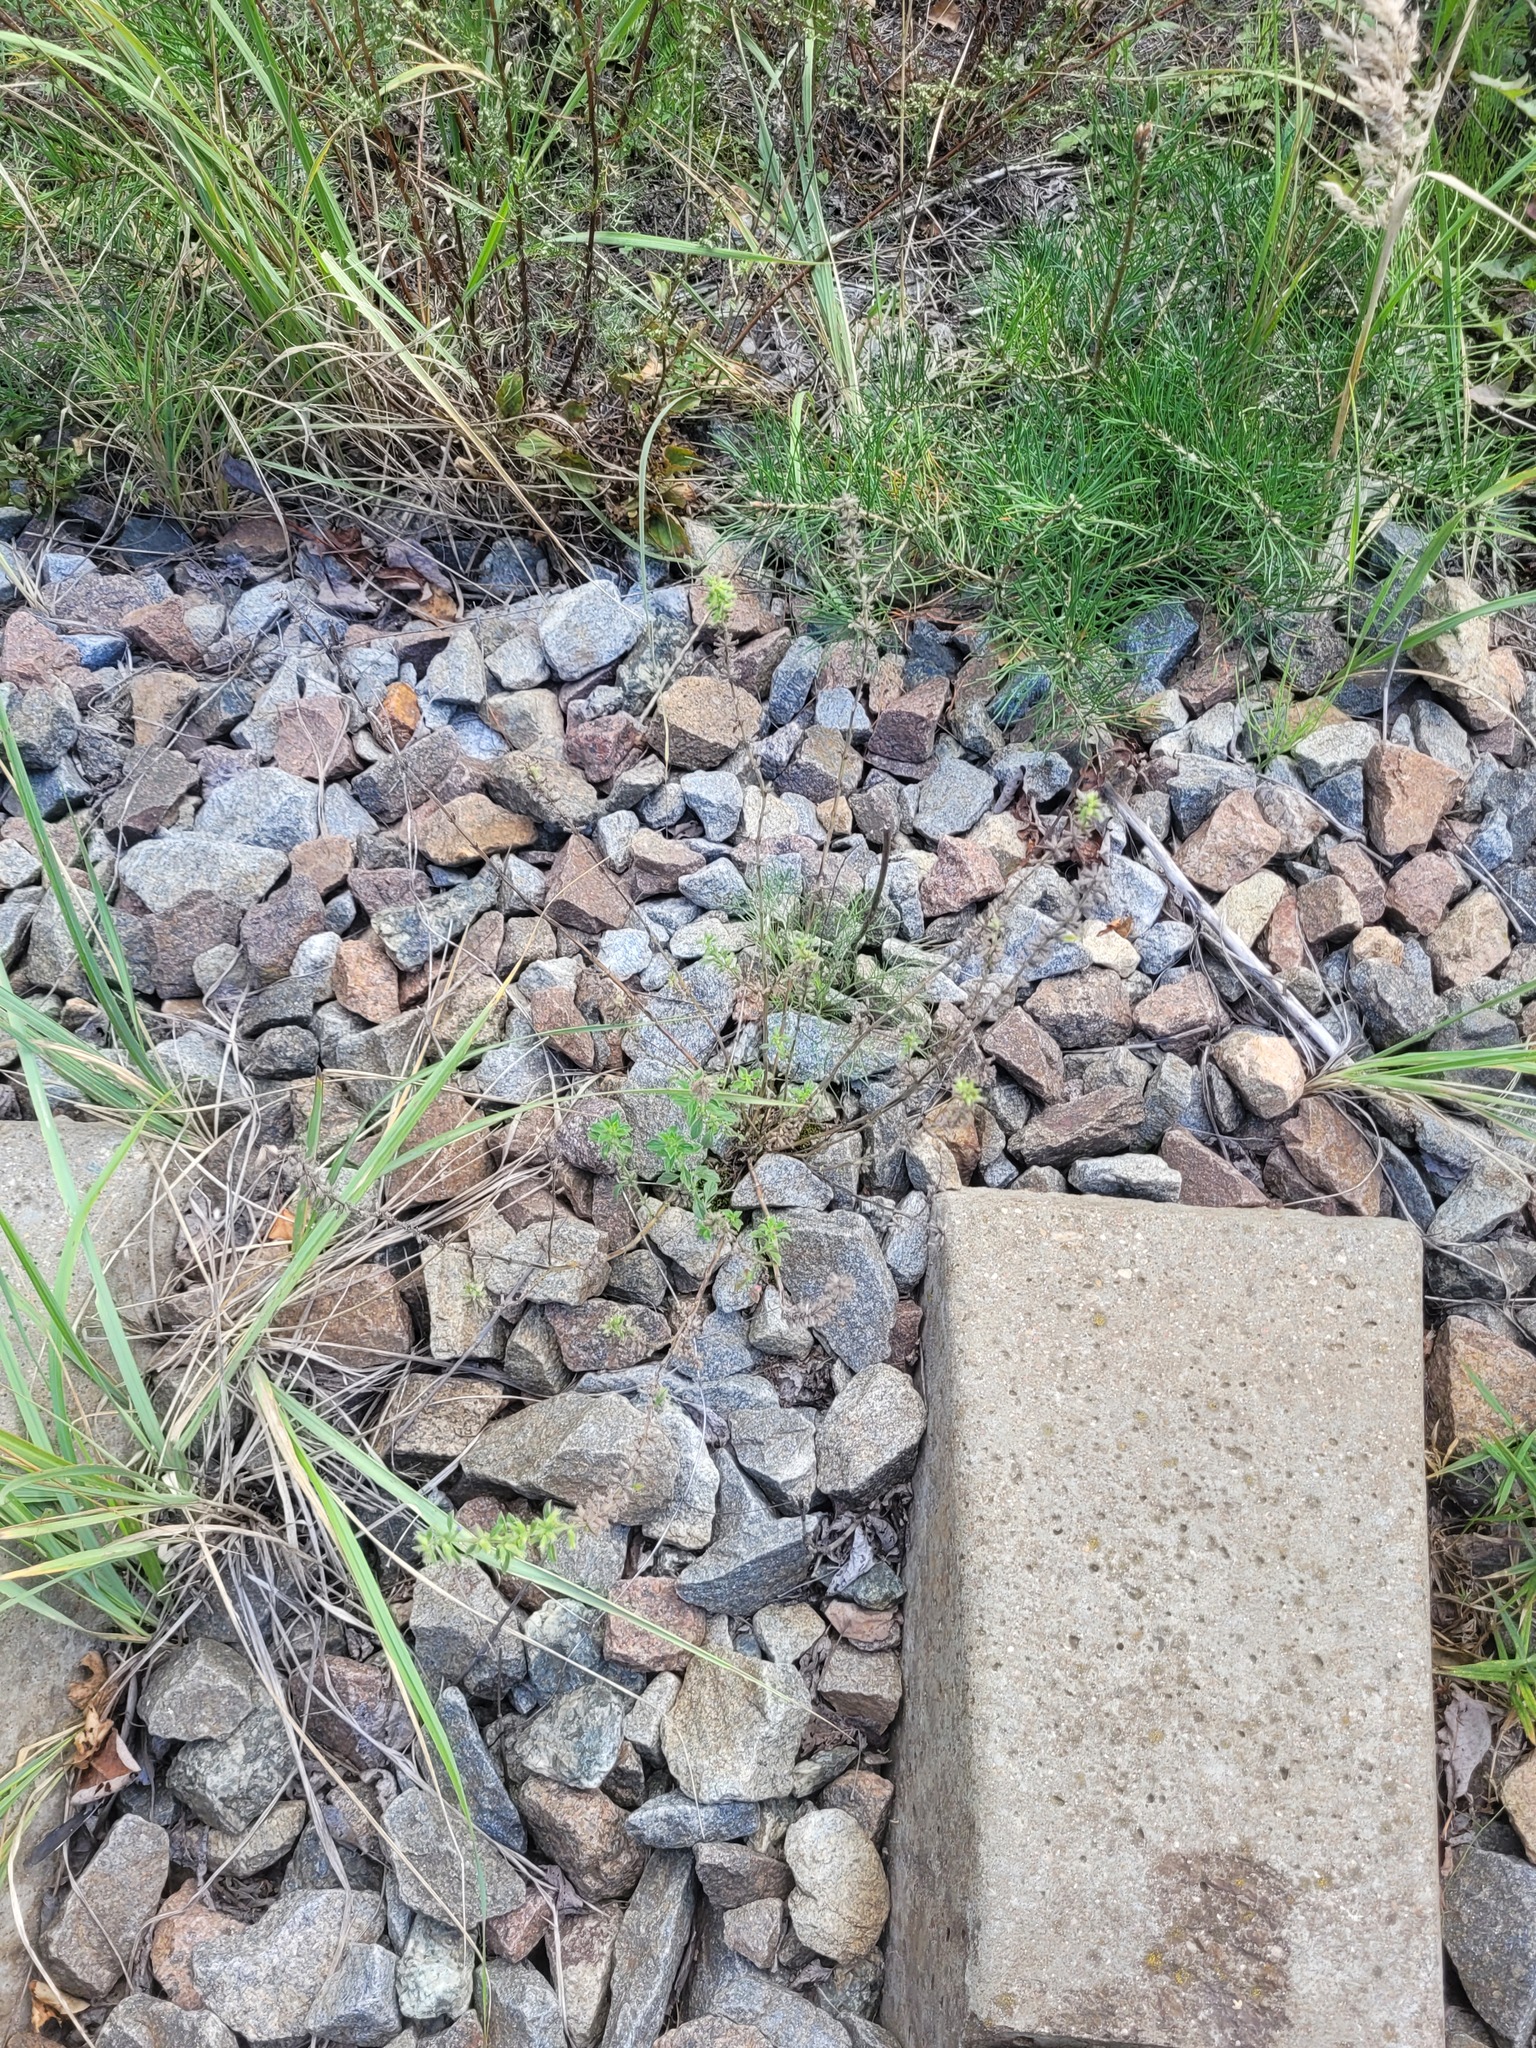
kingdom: Plantae
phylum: Tracheophyta
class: Magnoliopsida
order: Lamiales
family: Lamiaceae
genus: Clinopodium
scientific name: Clinopodium acinos
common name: Basil thyme
